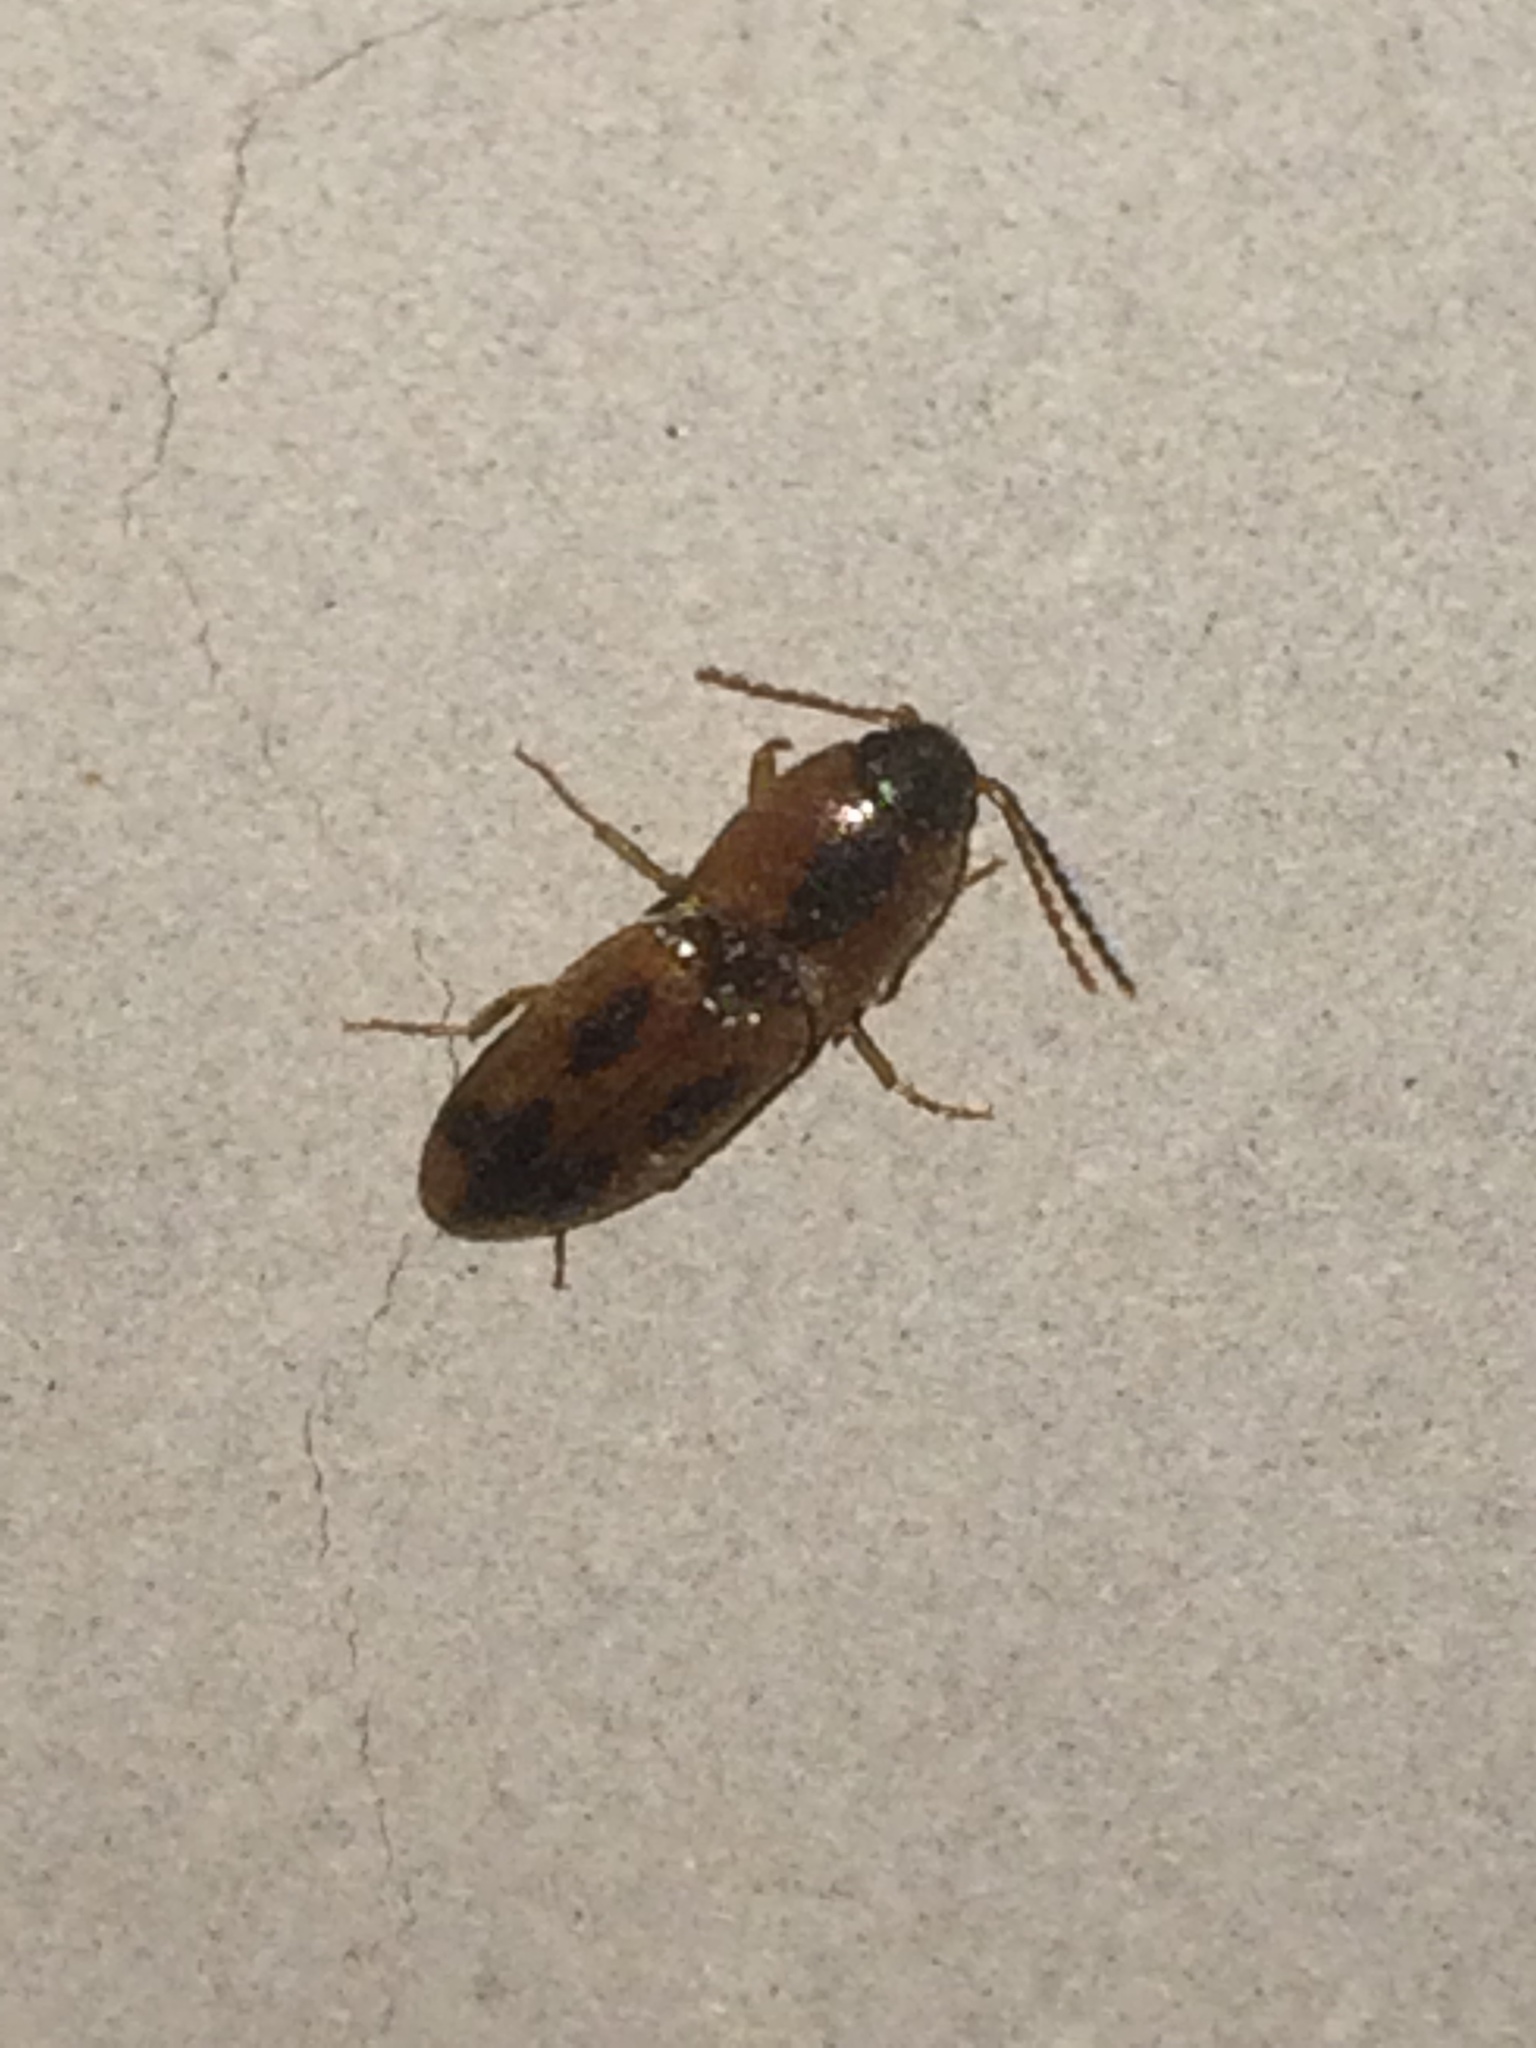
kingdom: Animalia
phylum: Arthropoda
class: Insecta
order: Coleoptera
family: Elateridae
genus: Aeolus
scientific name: Aeolus mellillus
